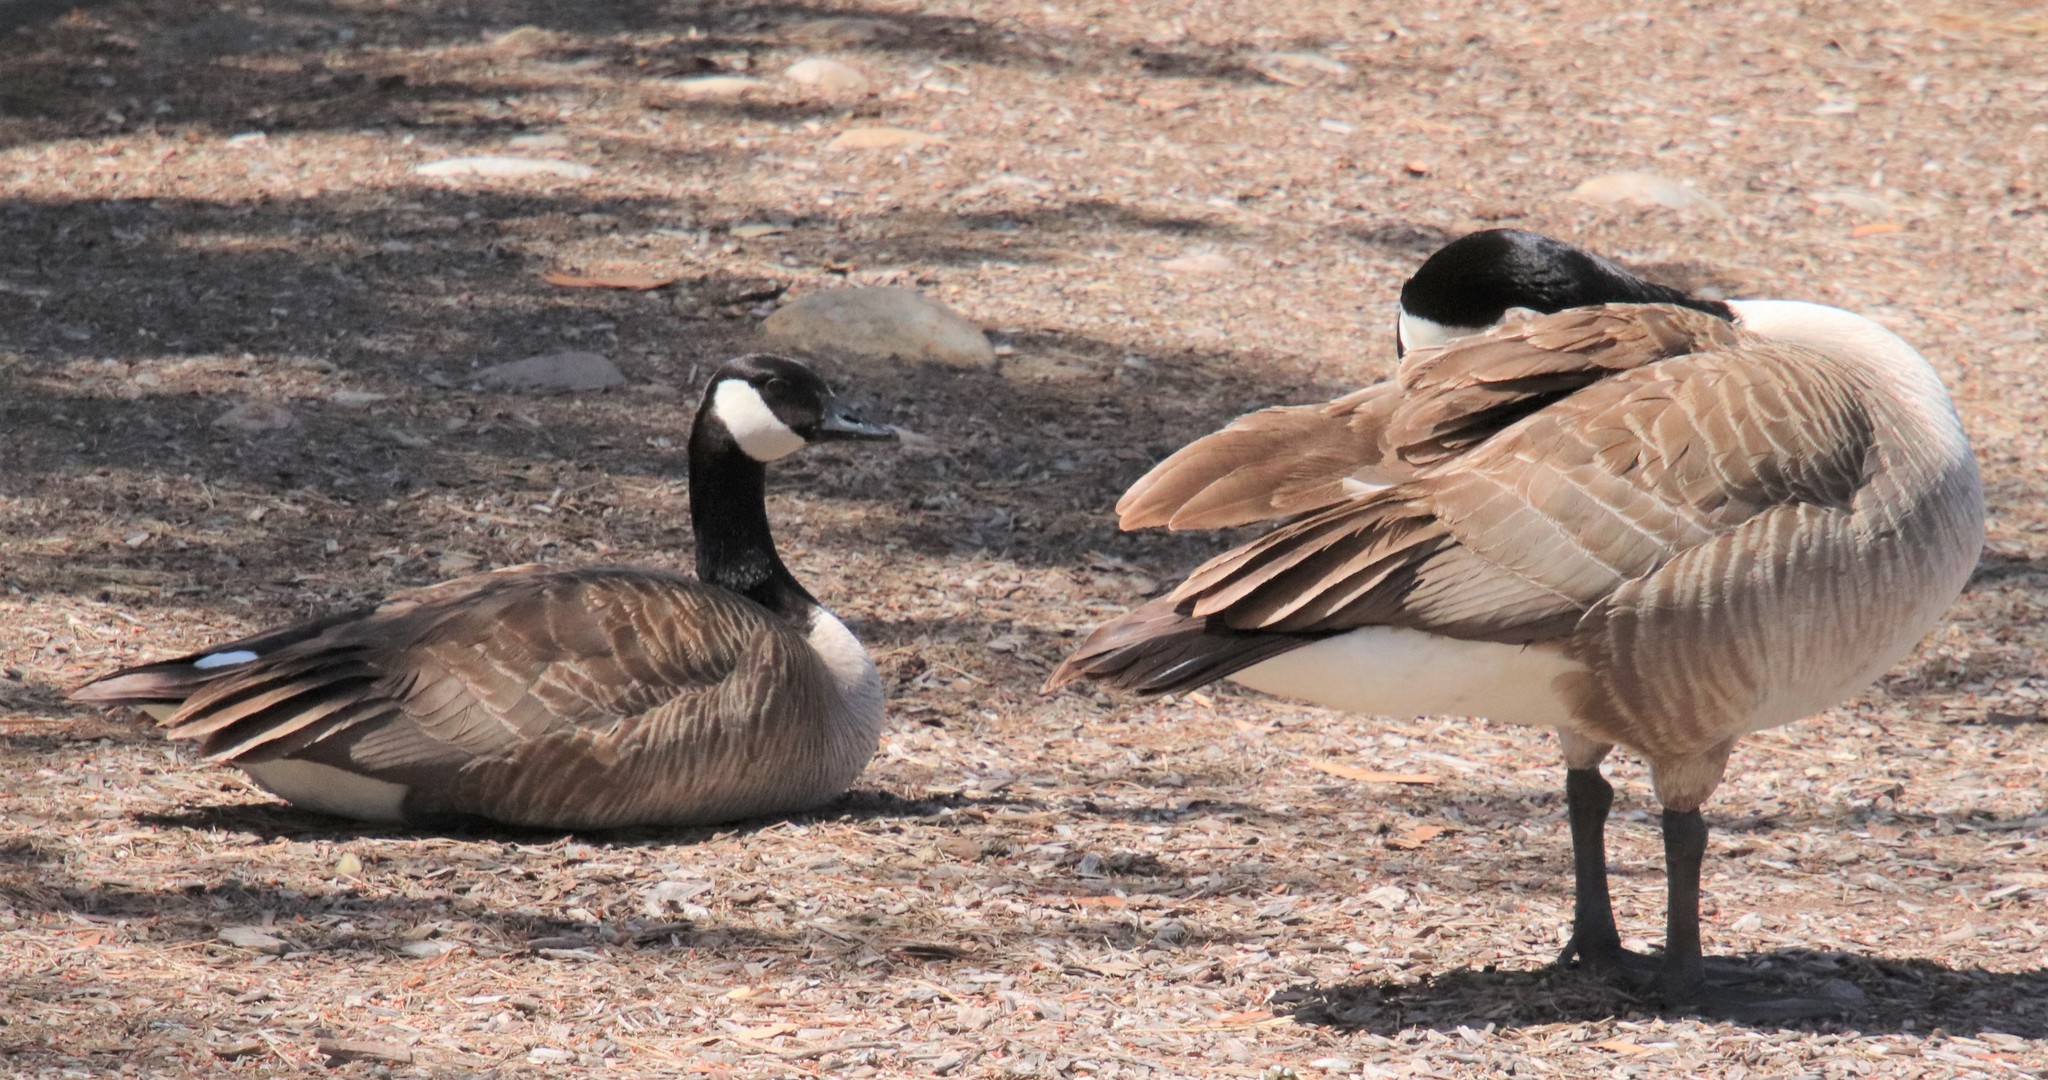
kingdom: Animalia
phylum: Chordata
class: Aves
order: Anseriformes
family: Anatidae
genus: Branta
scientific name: Branta canadensis
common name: Canada goose
